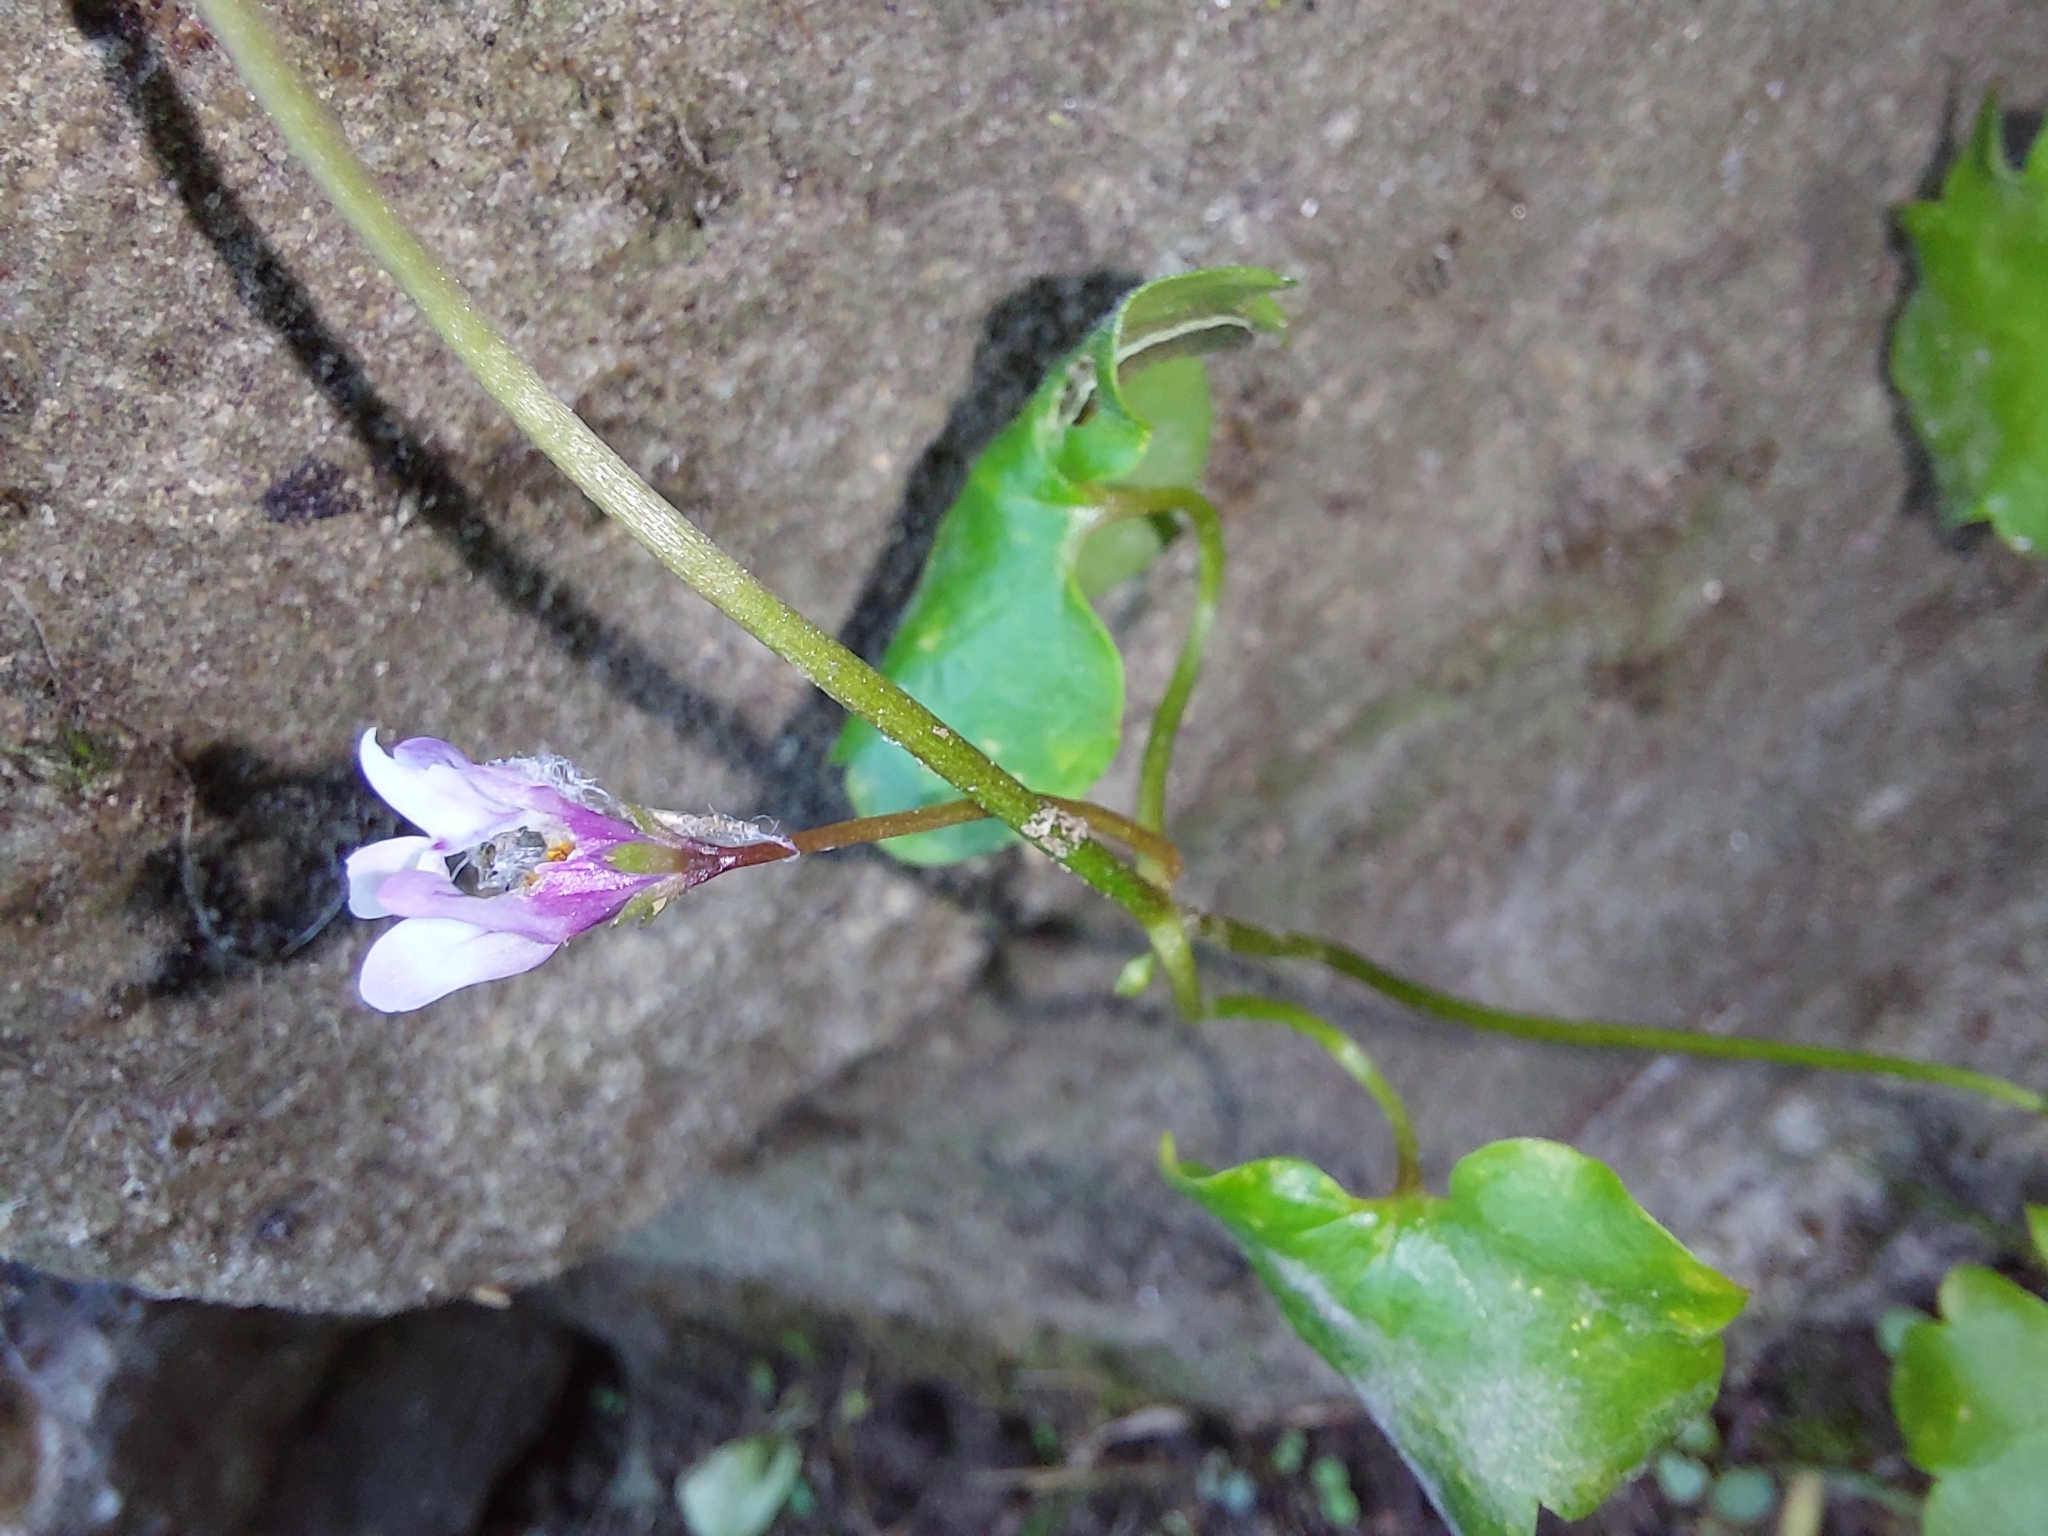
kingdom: Plantae
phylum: Tracheophyta
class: Magnoliopsida
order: Lamiales
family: Plantaginaceae
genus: Cymbalaria
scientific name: Cymbalaria muralis
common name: Ivy-leaved toadflax
